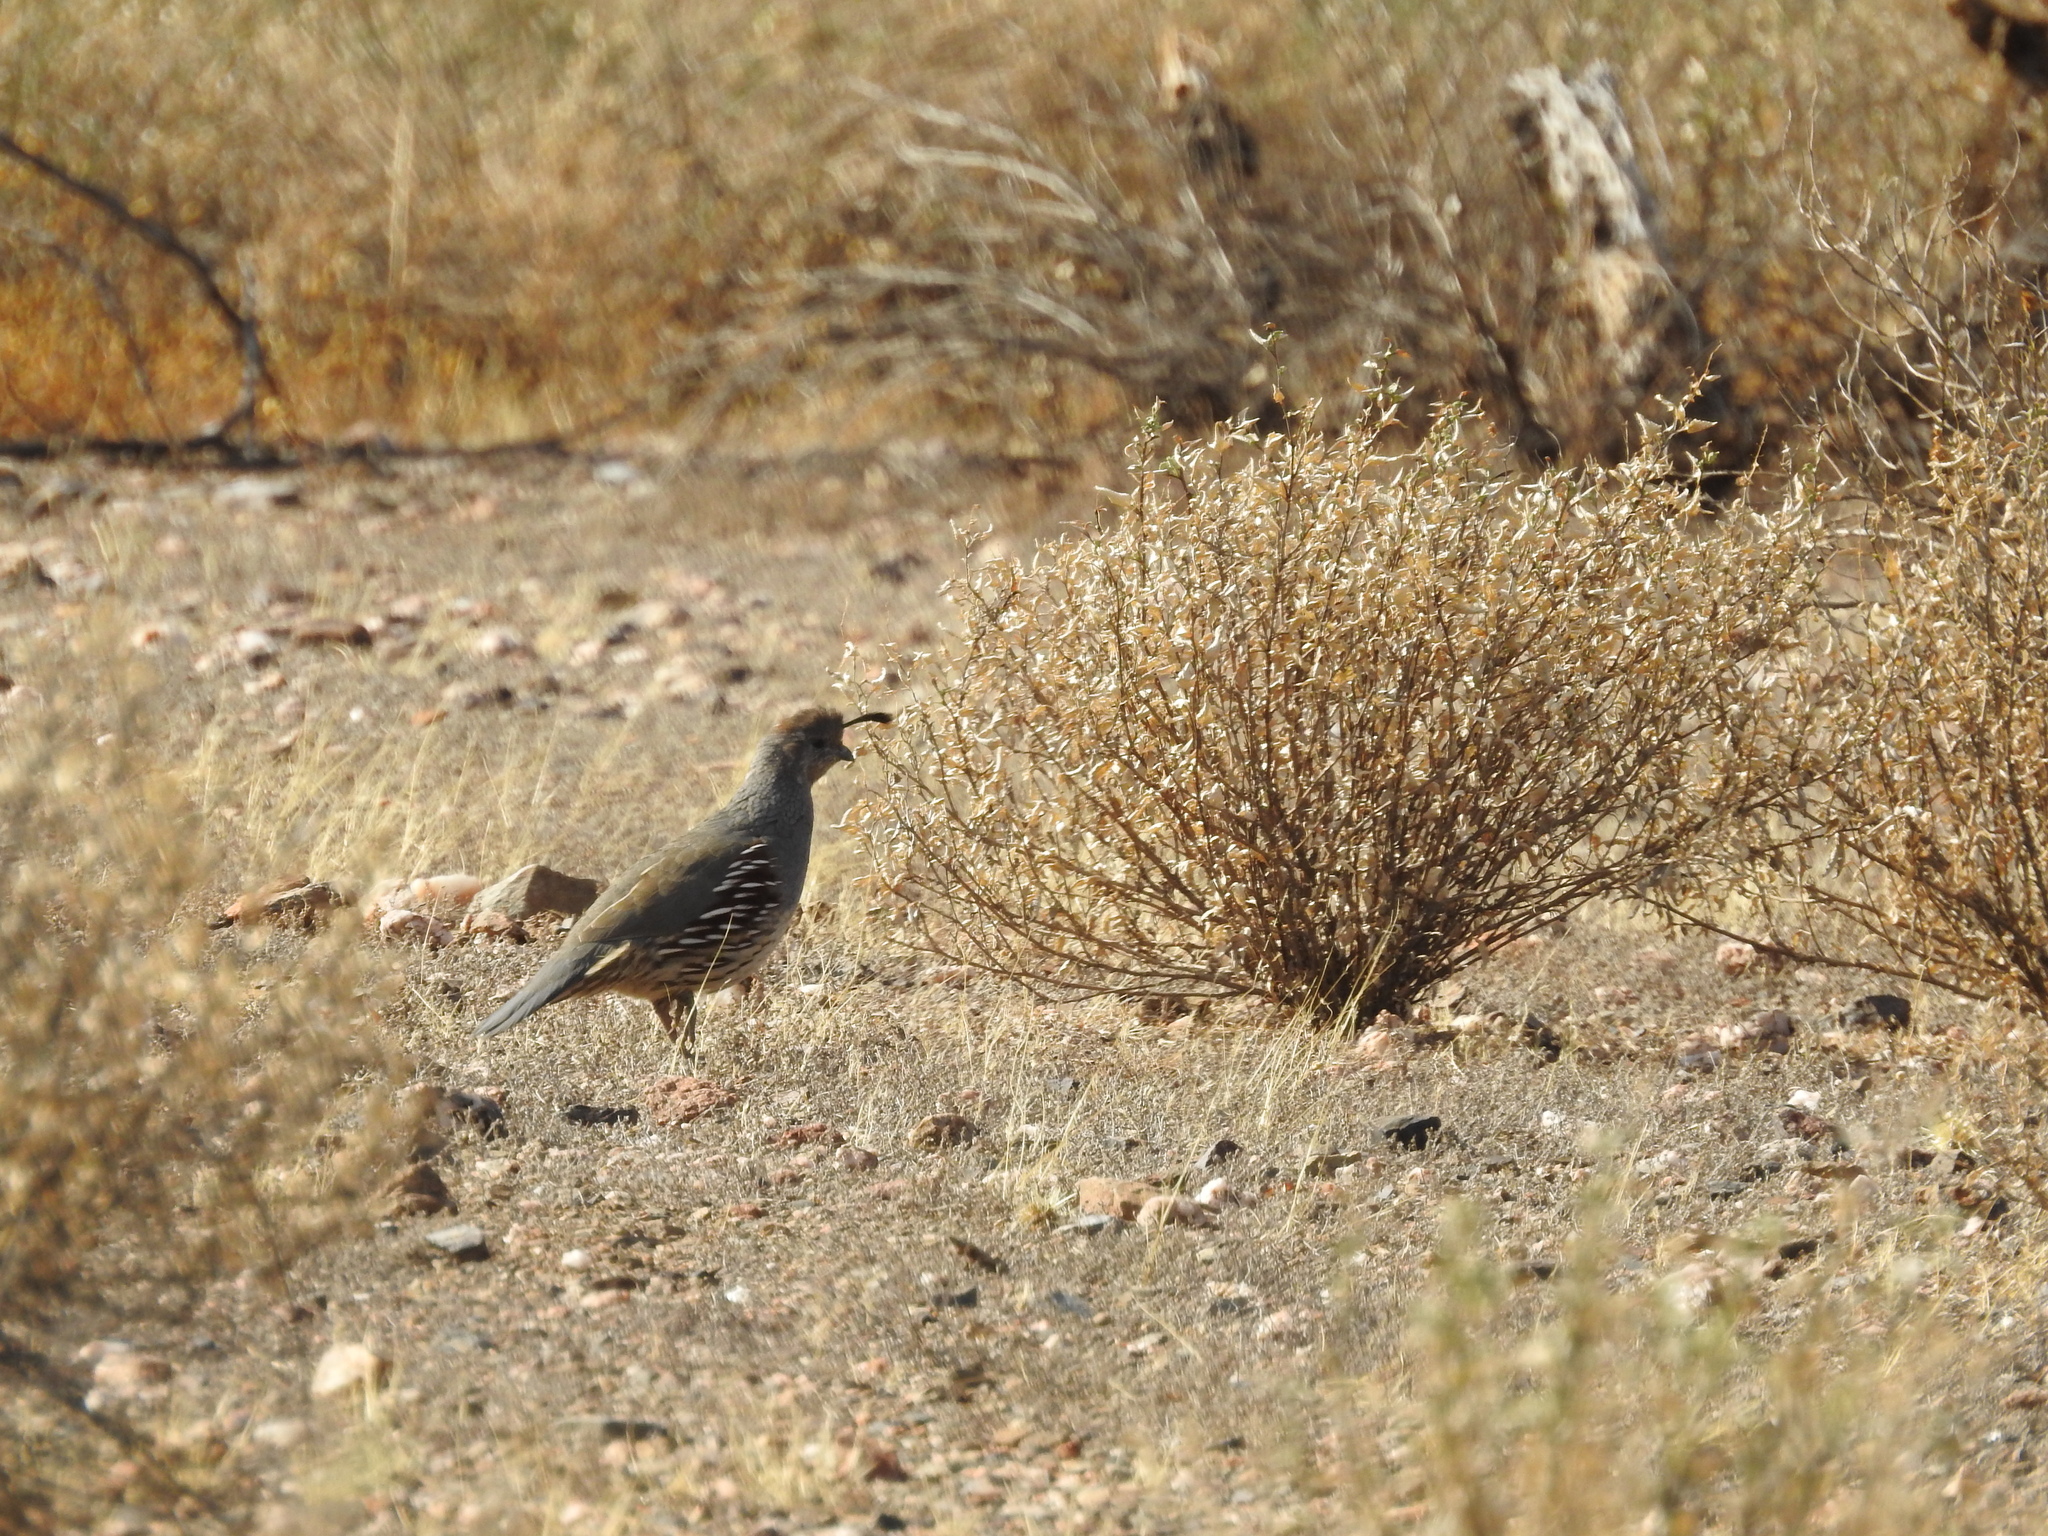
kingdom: Animalia
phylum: Chordata
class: Aves
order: Galliformes
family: Odontophoridae
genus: Callipepla
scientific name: Callipepla gambelii
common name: Gambel's quail
